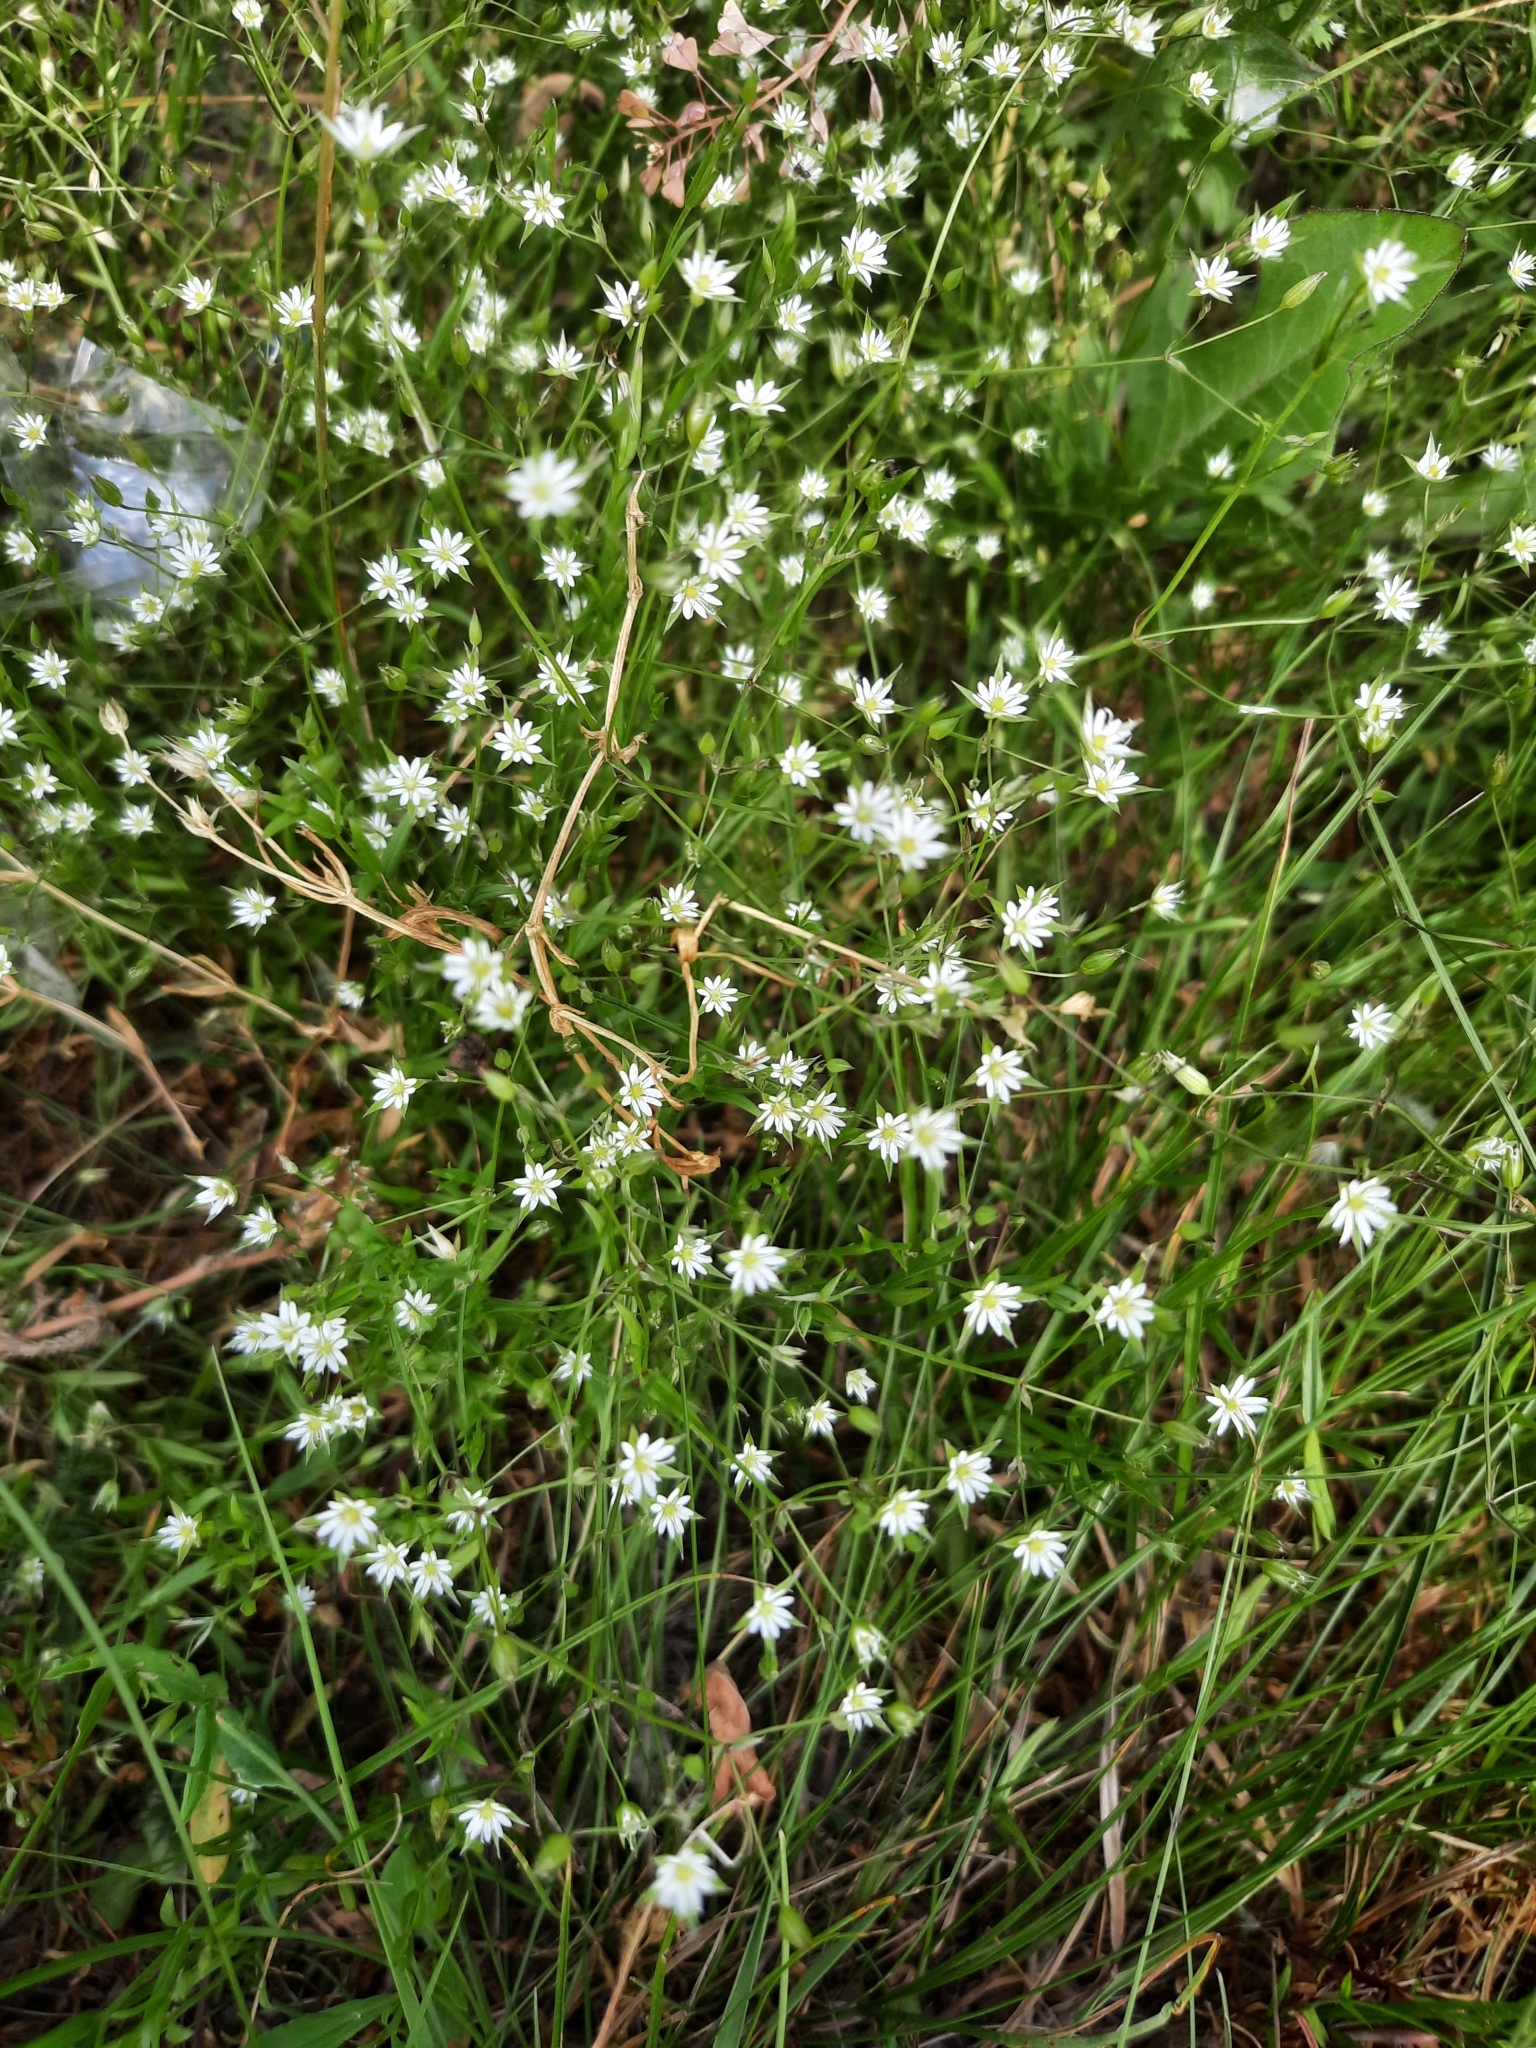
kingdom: Plantae
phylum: Tracheophyta
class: Magnoliopsida
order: Caryophyllales
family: Caryophyllaceae
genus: Stellaria
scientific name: Stellaria graminea
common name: Grass-like starwort
